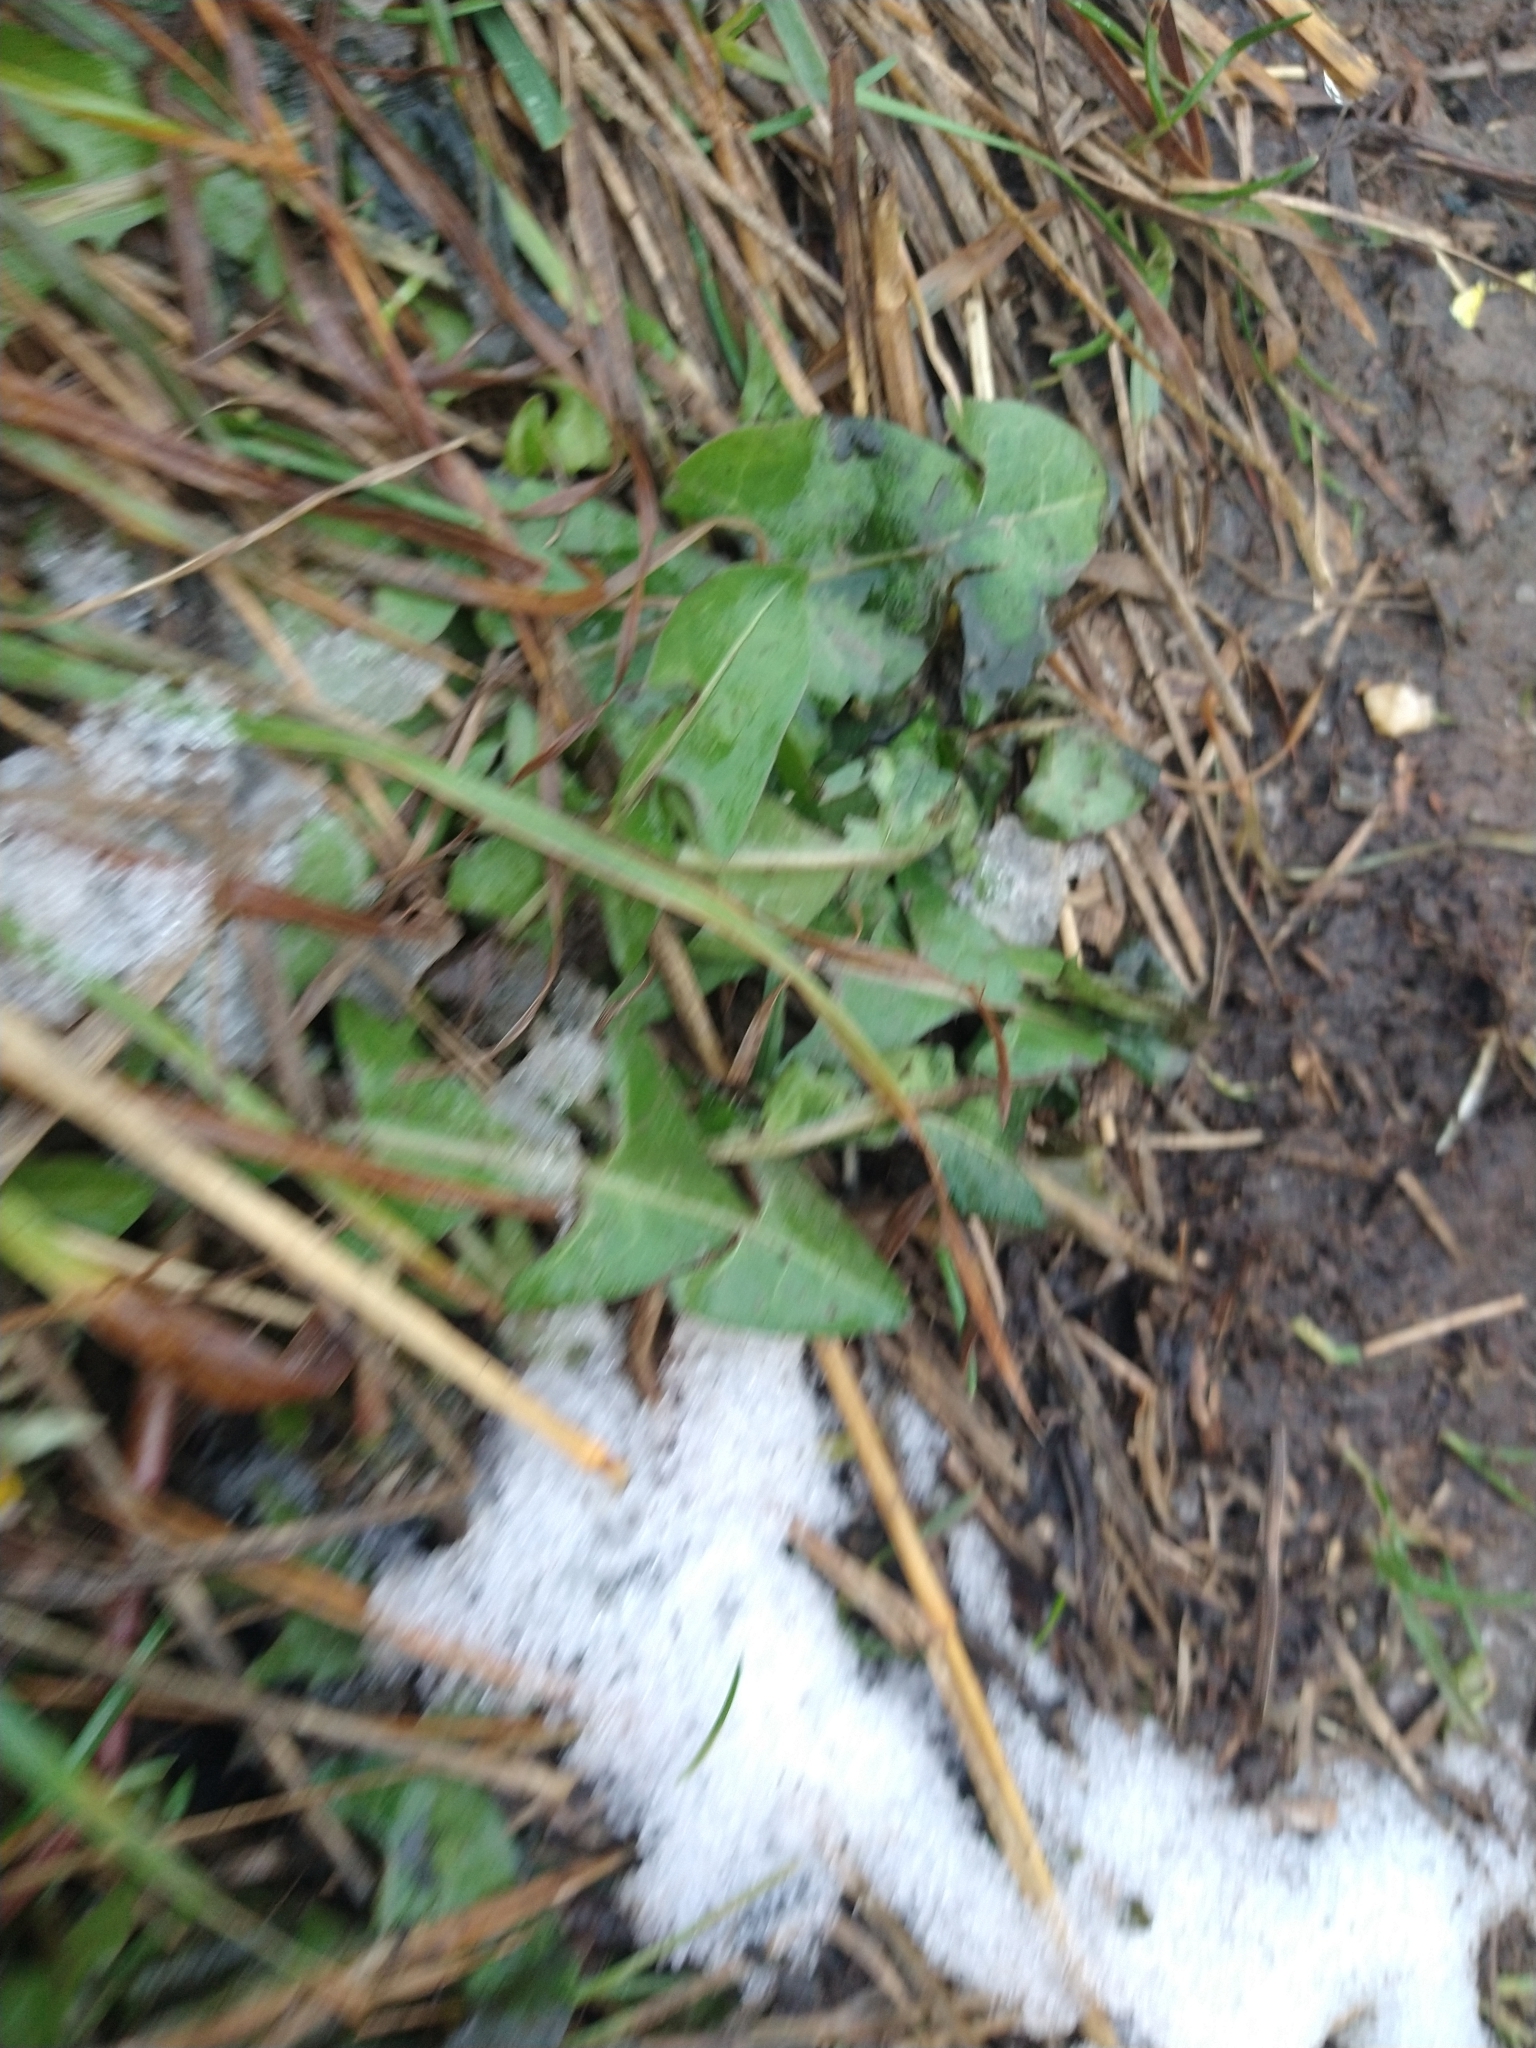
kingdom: Plantae
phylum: Tracheophyta
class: Magnoliopsida
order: Asterales
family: Asteraceae
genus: Taraxacum
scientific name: Taraxacum officinale
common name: Common dandelion
